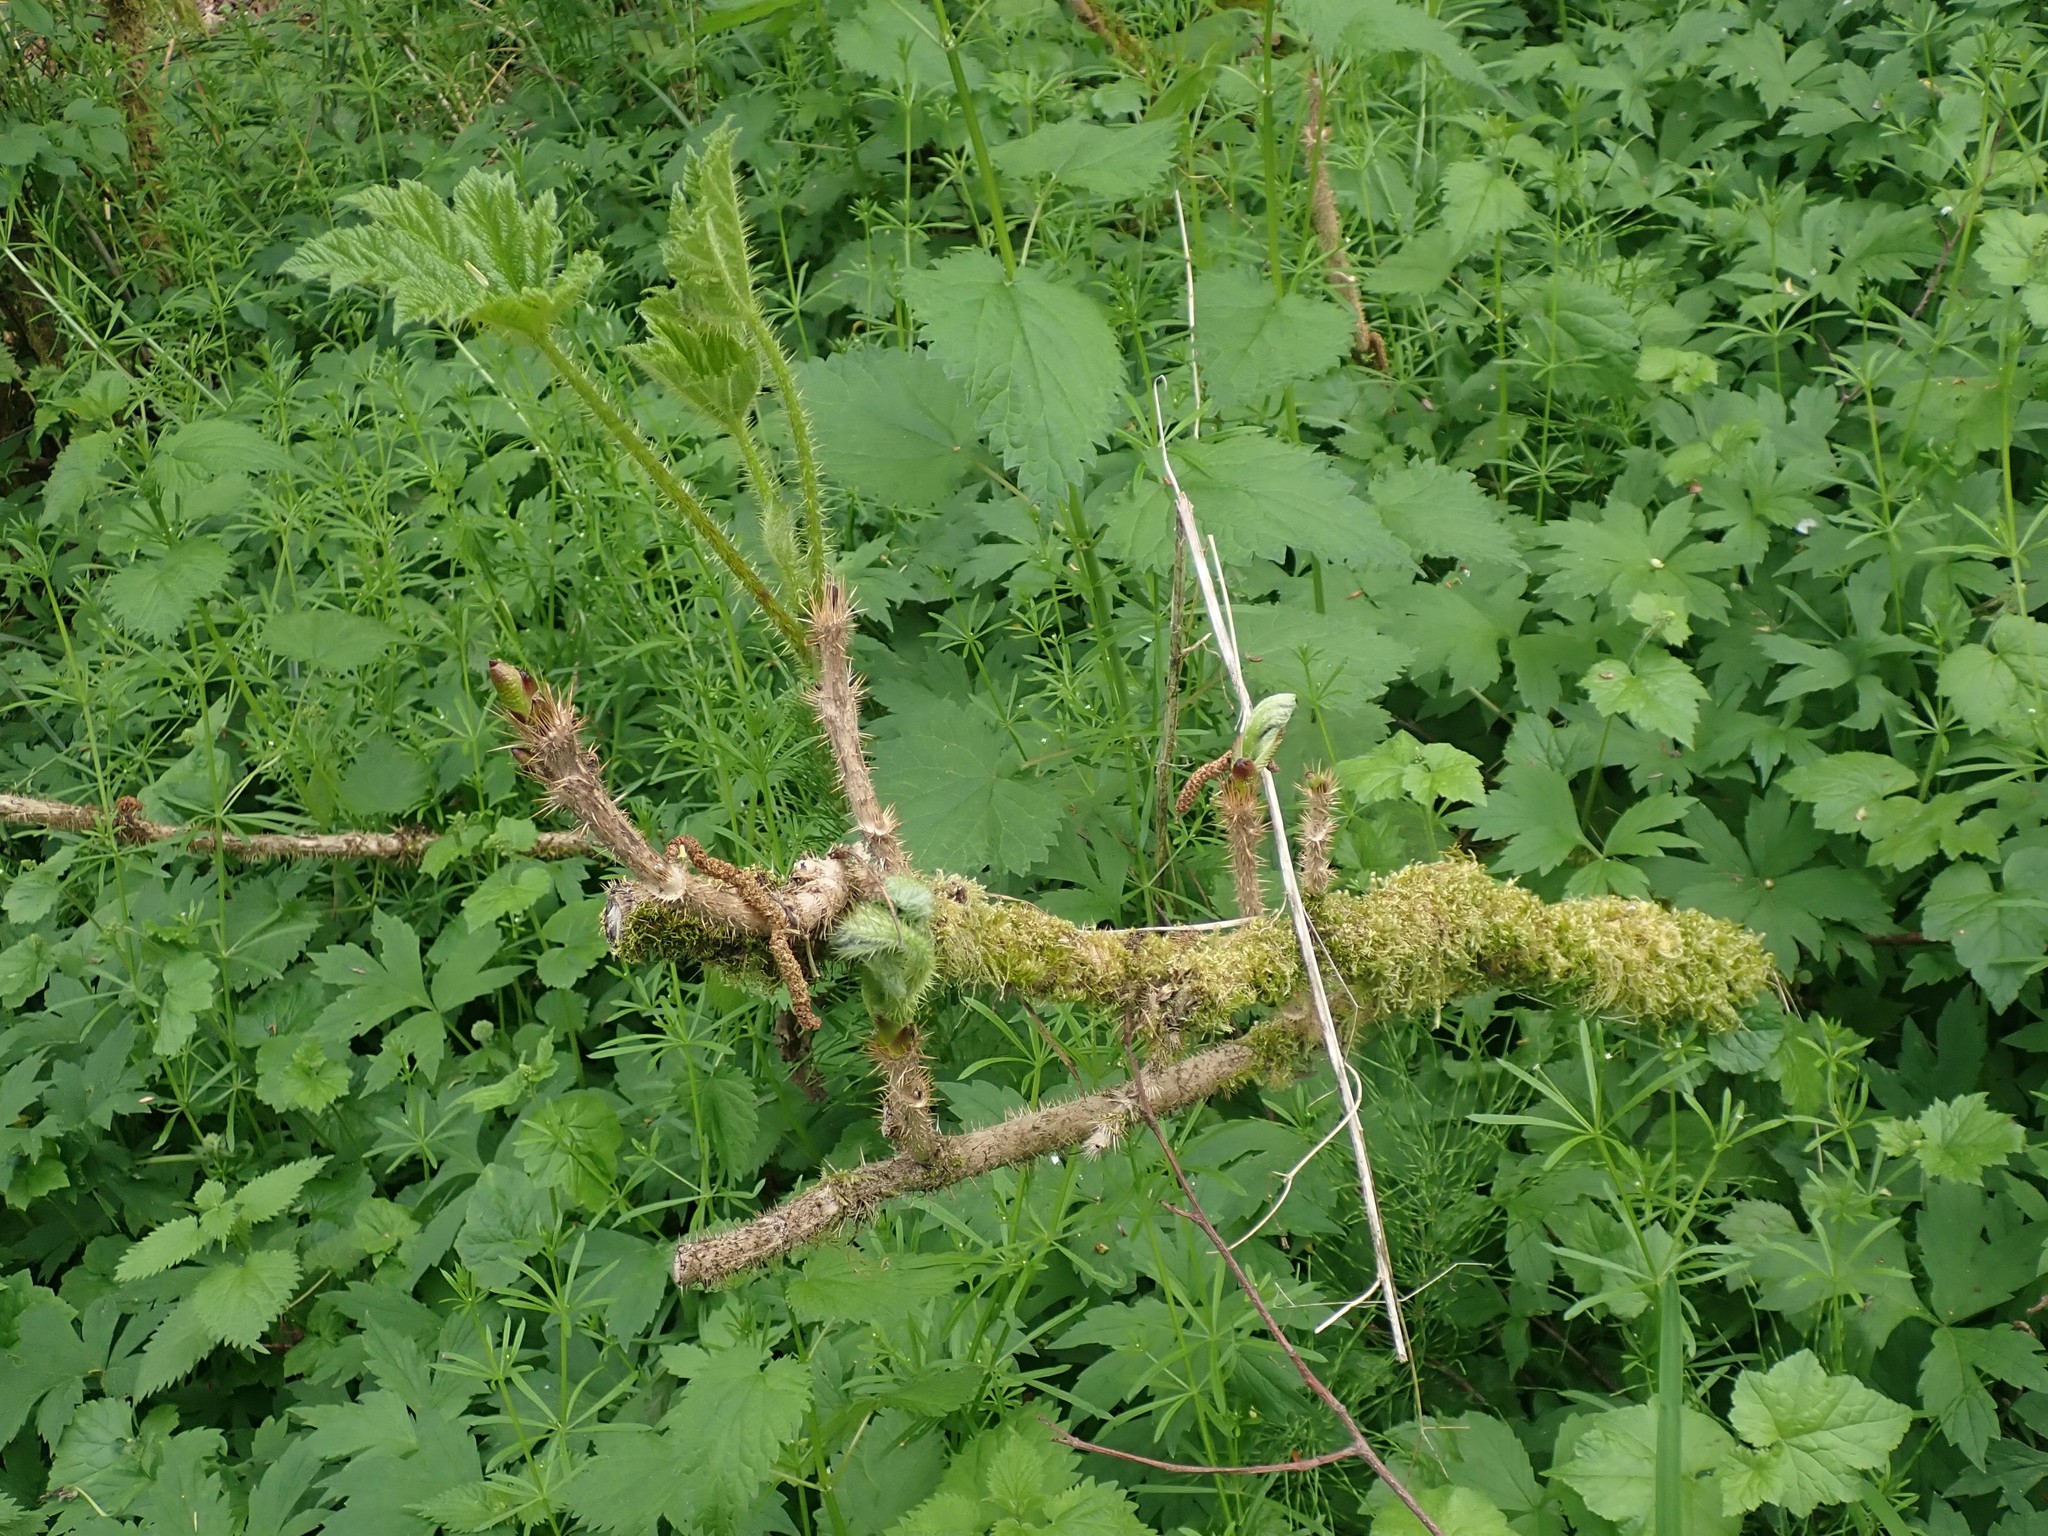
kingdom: Plantae
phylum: Tracheophyta
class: Magnoliopsida
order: Apiales
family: Araliaceae
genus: Oplopanax
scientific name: Oplopanax horridus
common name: Devil's walking-stick
